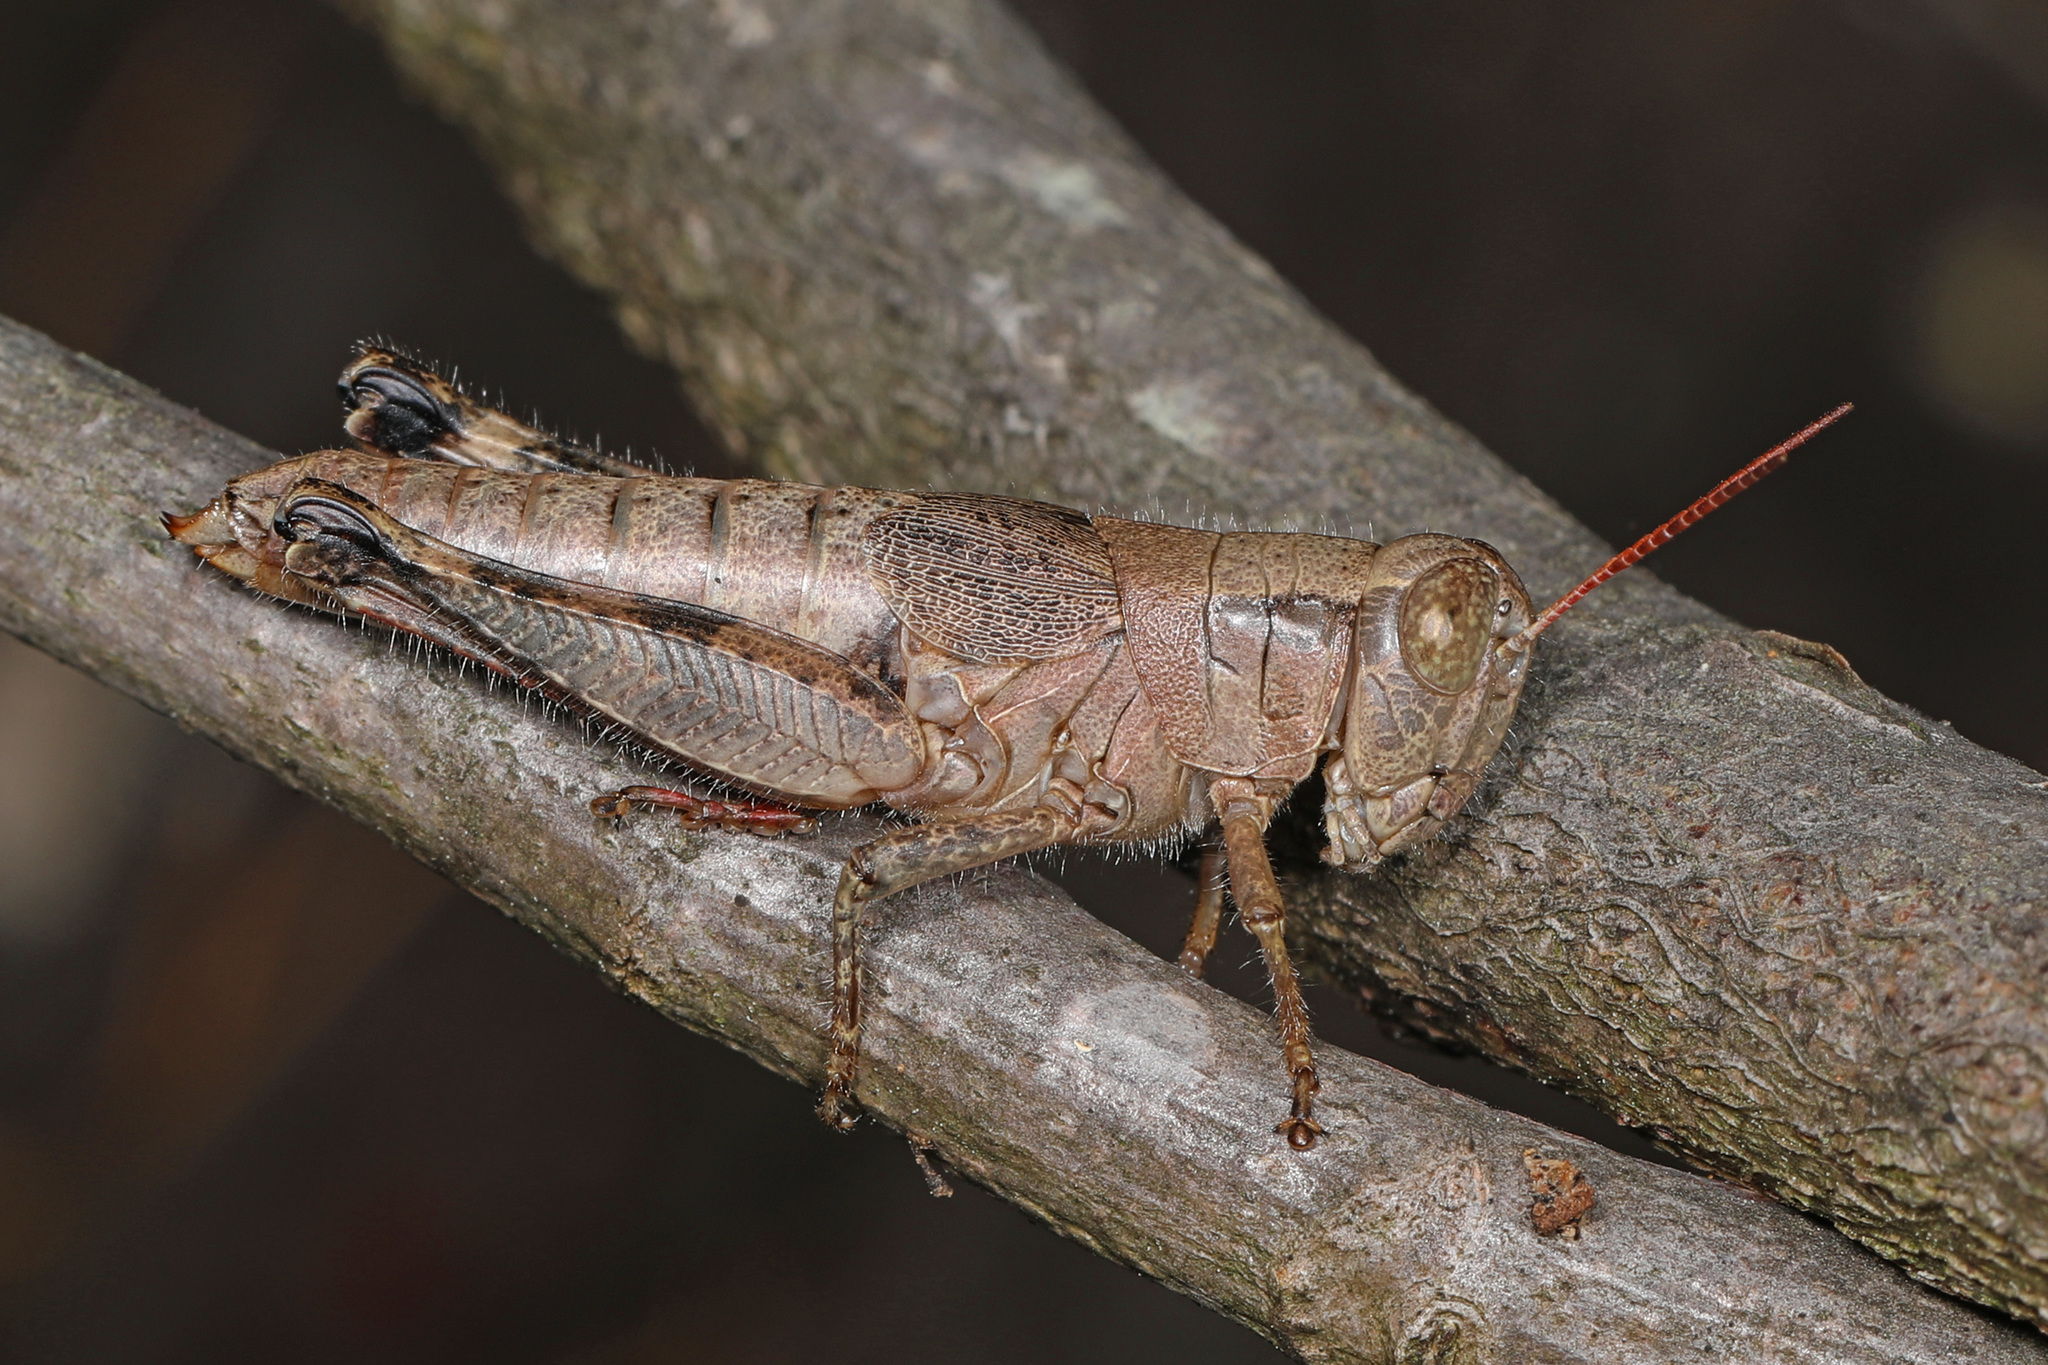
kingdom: Animalia
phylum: Arthropoda
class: Insecta
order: Orthoptera
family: Acrididae
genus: Melanoplus
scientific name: Melanoplus scudderi
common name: Scudder's short-winged locust
